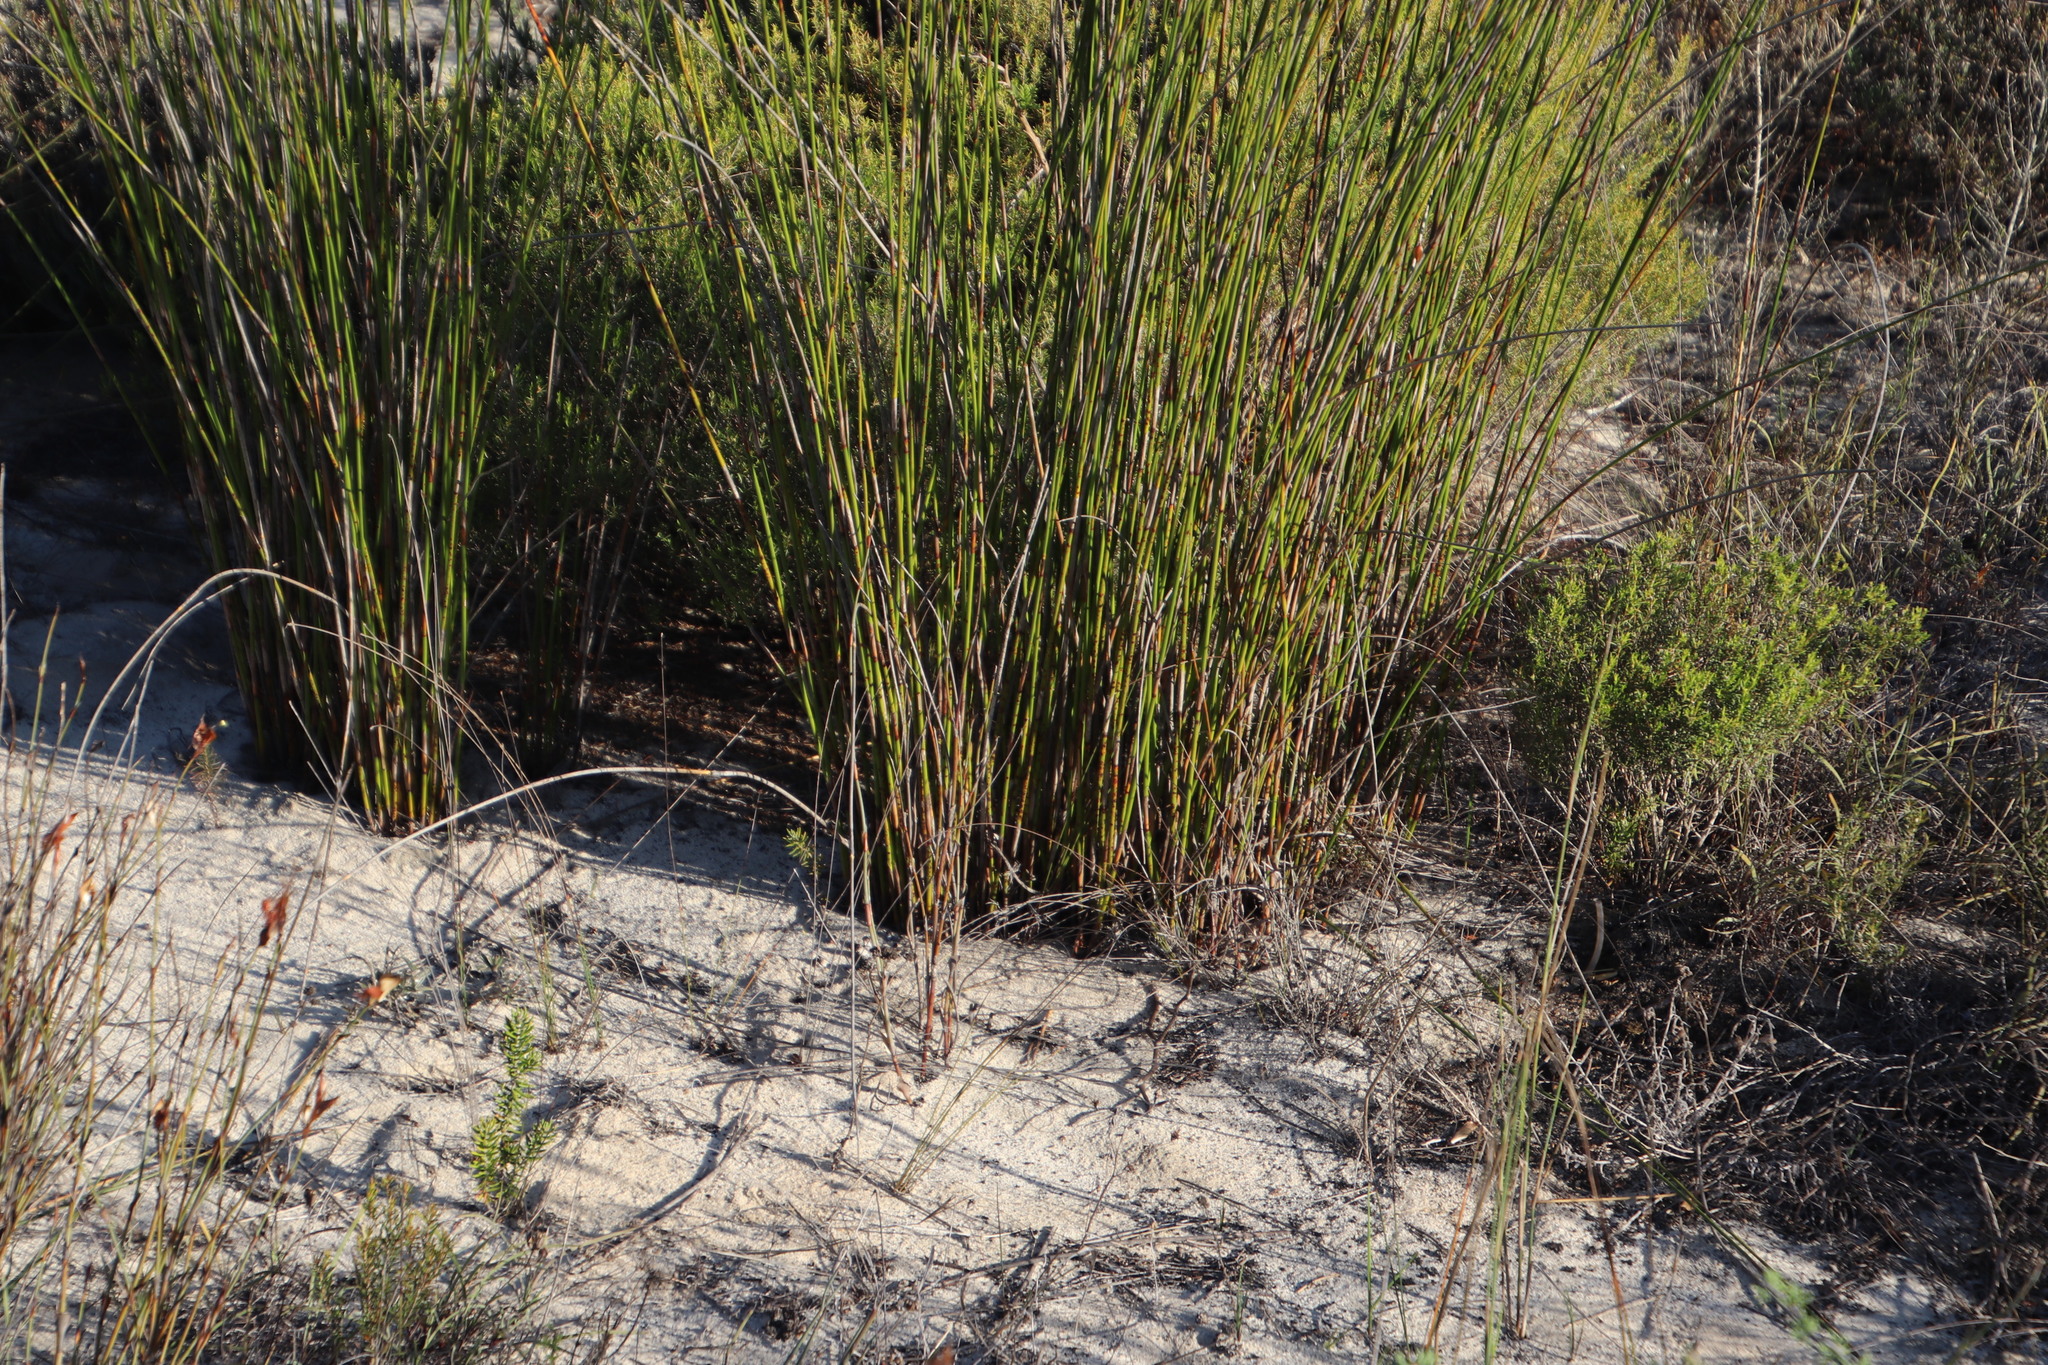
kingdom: Plantae
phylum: Tracheophyta
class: Liliopsida
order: Poales
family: Restionaceae
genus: Thamnochortus
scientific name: Thamnochortus bachmannii
